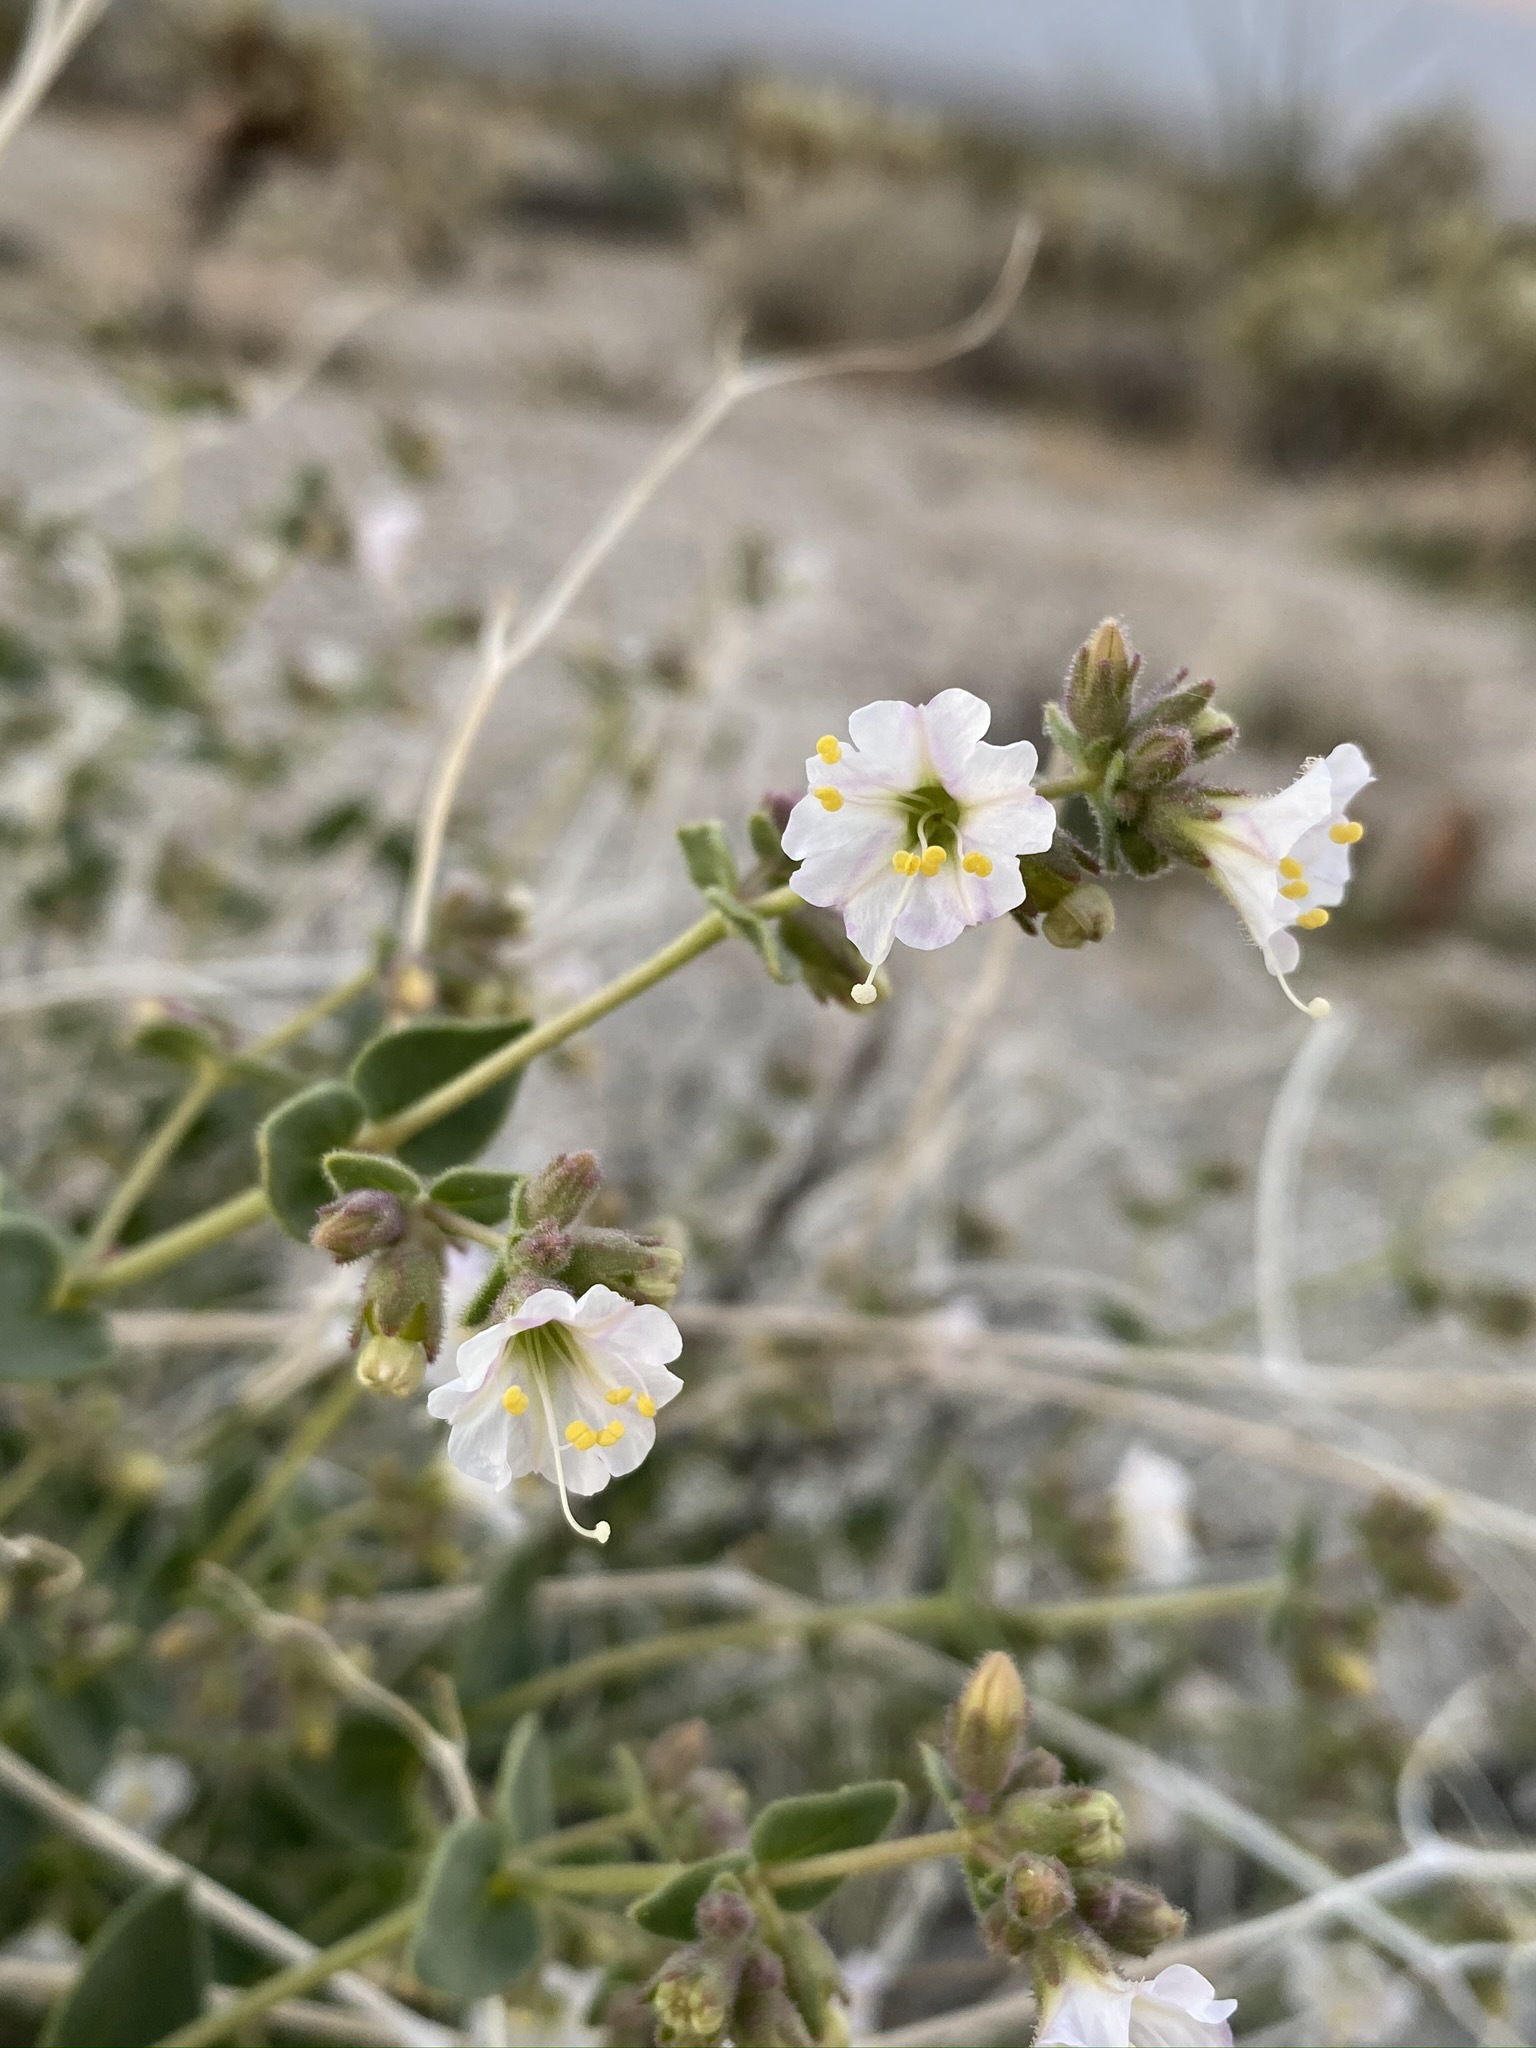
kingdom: Plantae
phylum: Tracheophyta
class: Magnoliopsida
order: Caryophyllales
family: Nyctaginaceae
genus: Mirabilis
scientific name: Mirabilis laevis
